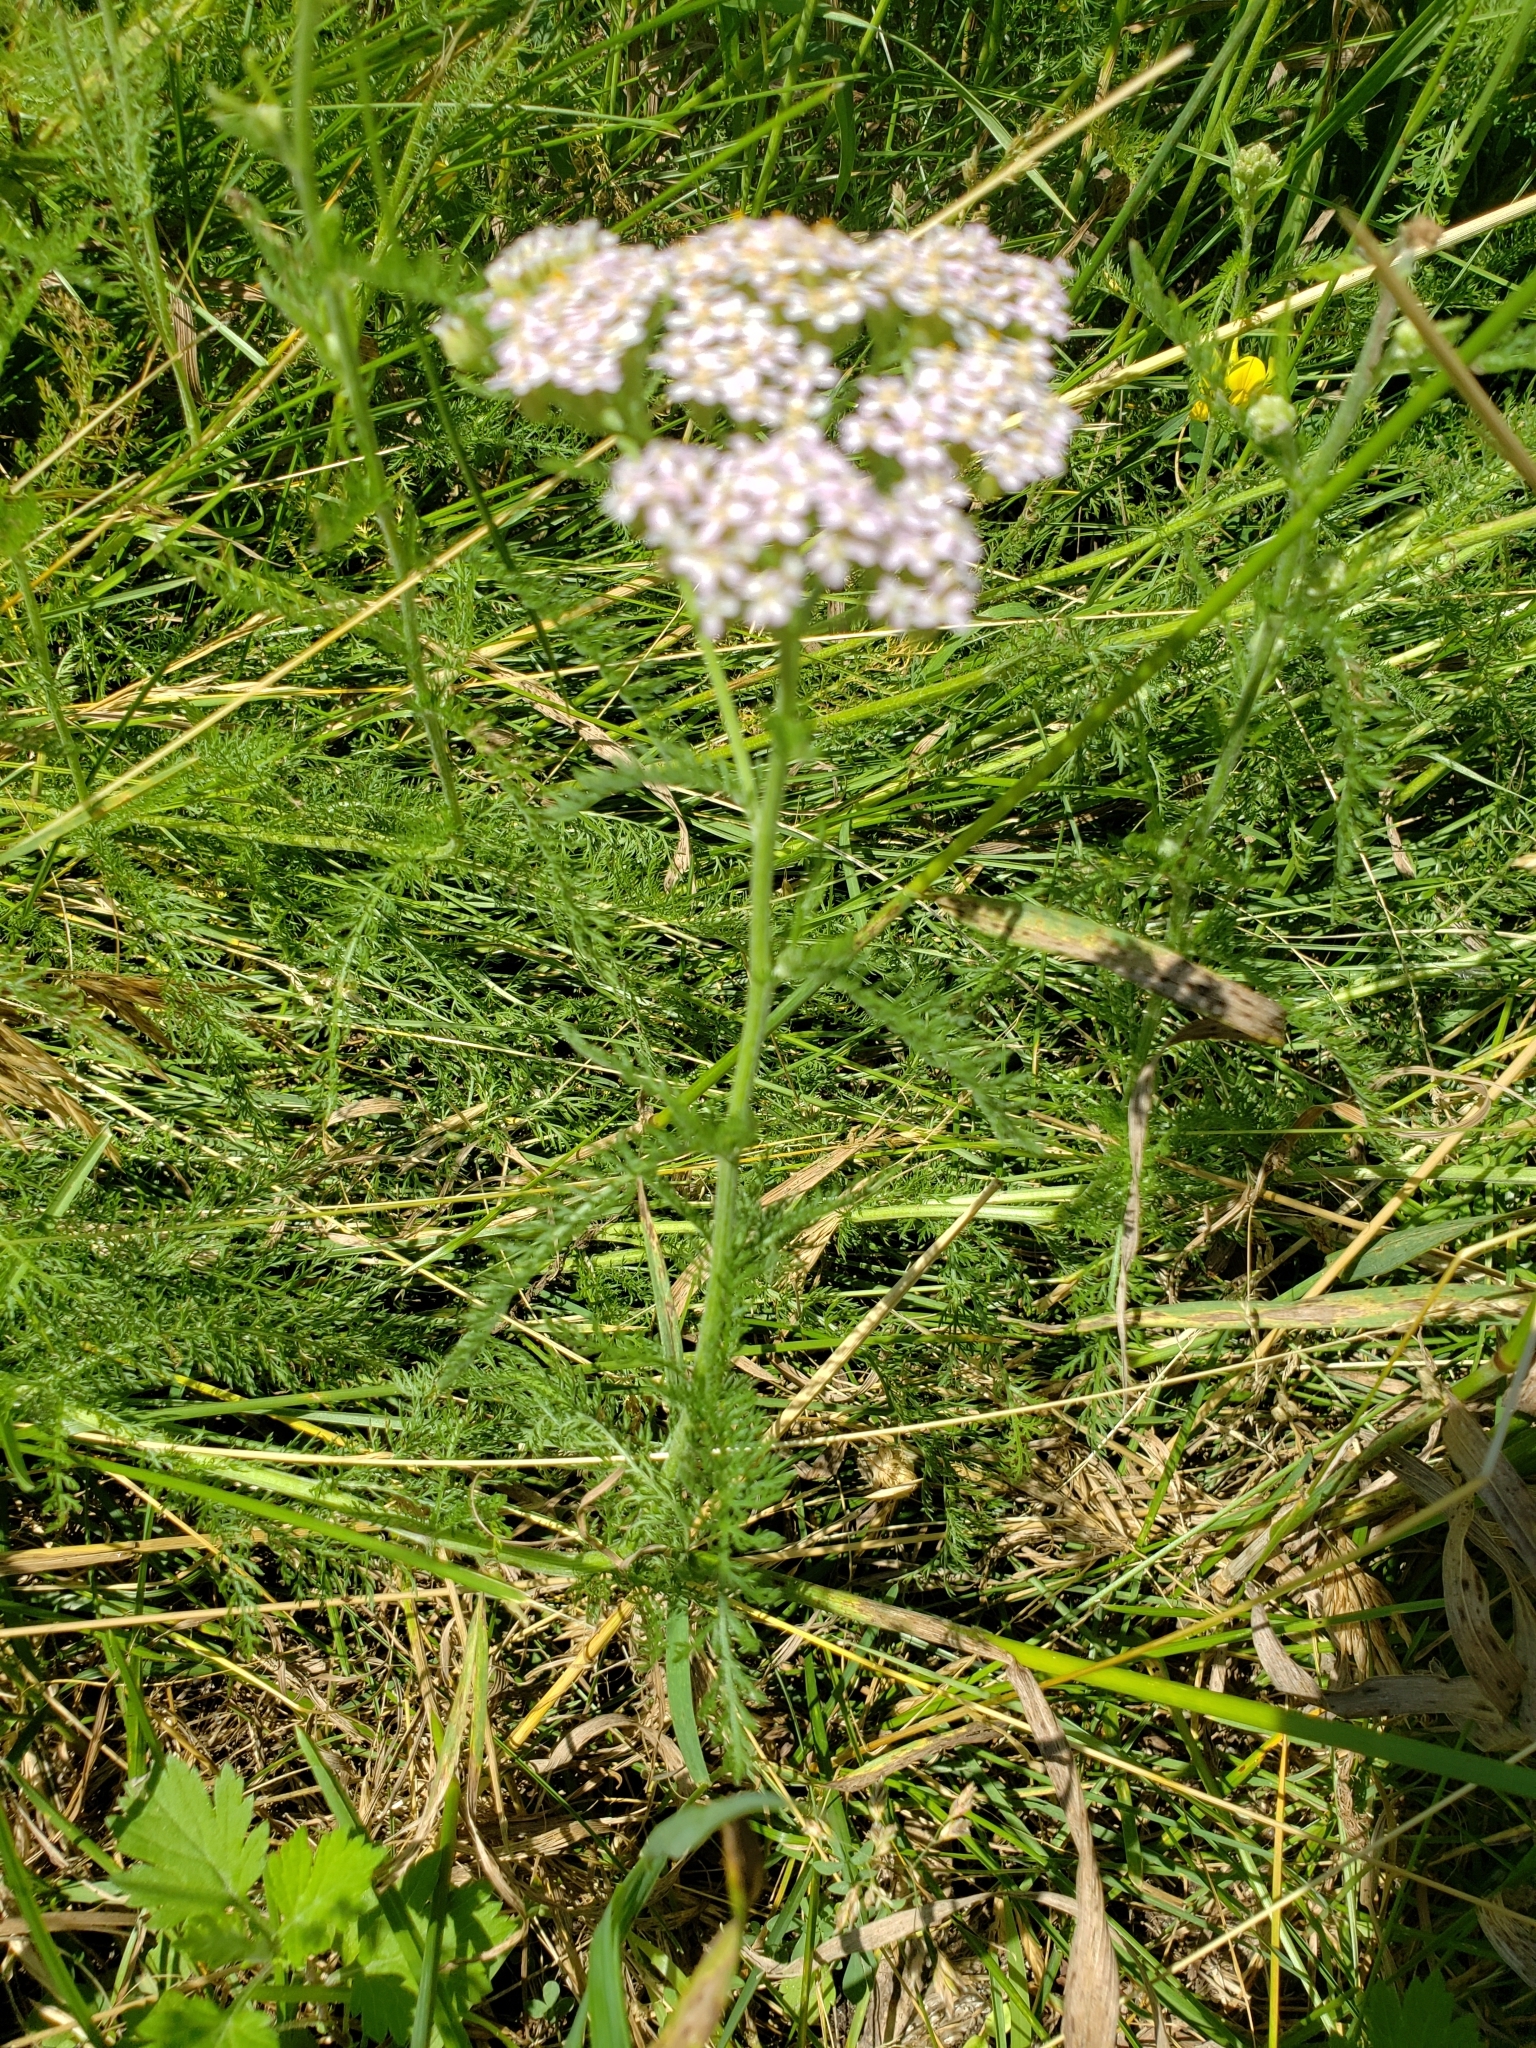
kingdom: Plantae
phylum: Tracheophyta
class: Magnoliopsida
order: Asterales
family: Asteraceae
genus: Achillea
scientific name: Achillea millefolium
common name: Yarrow
